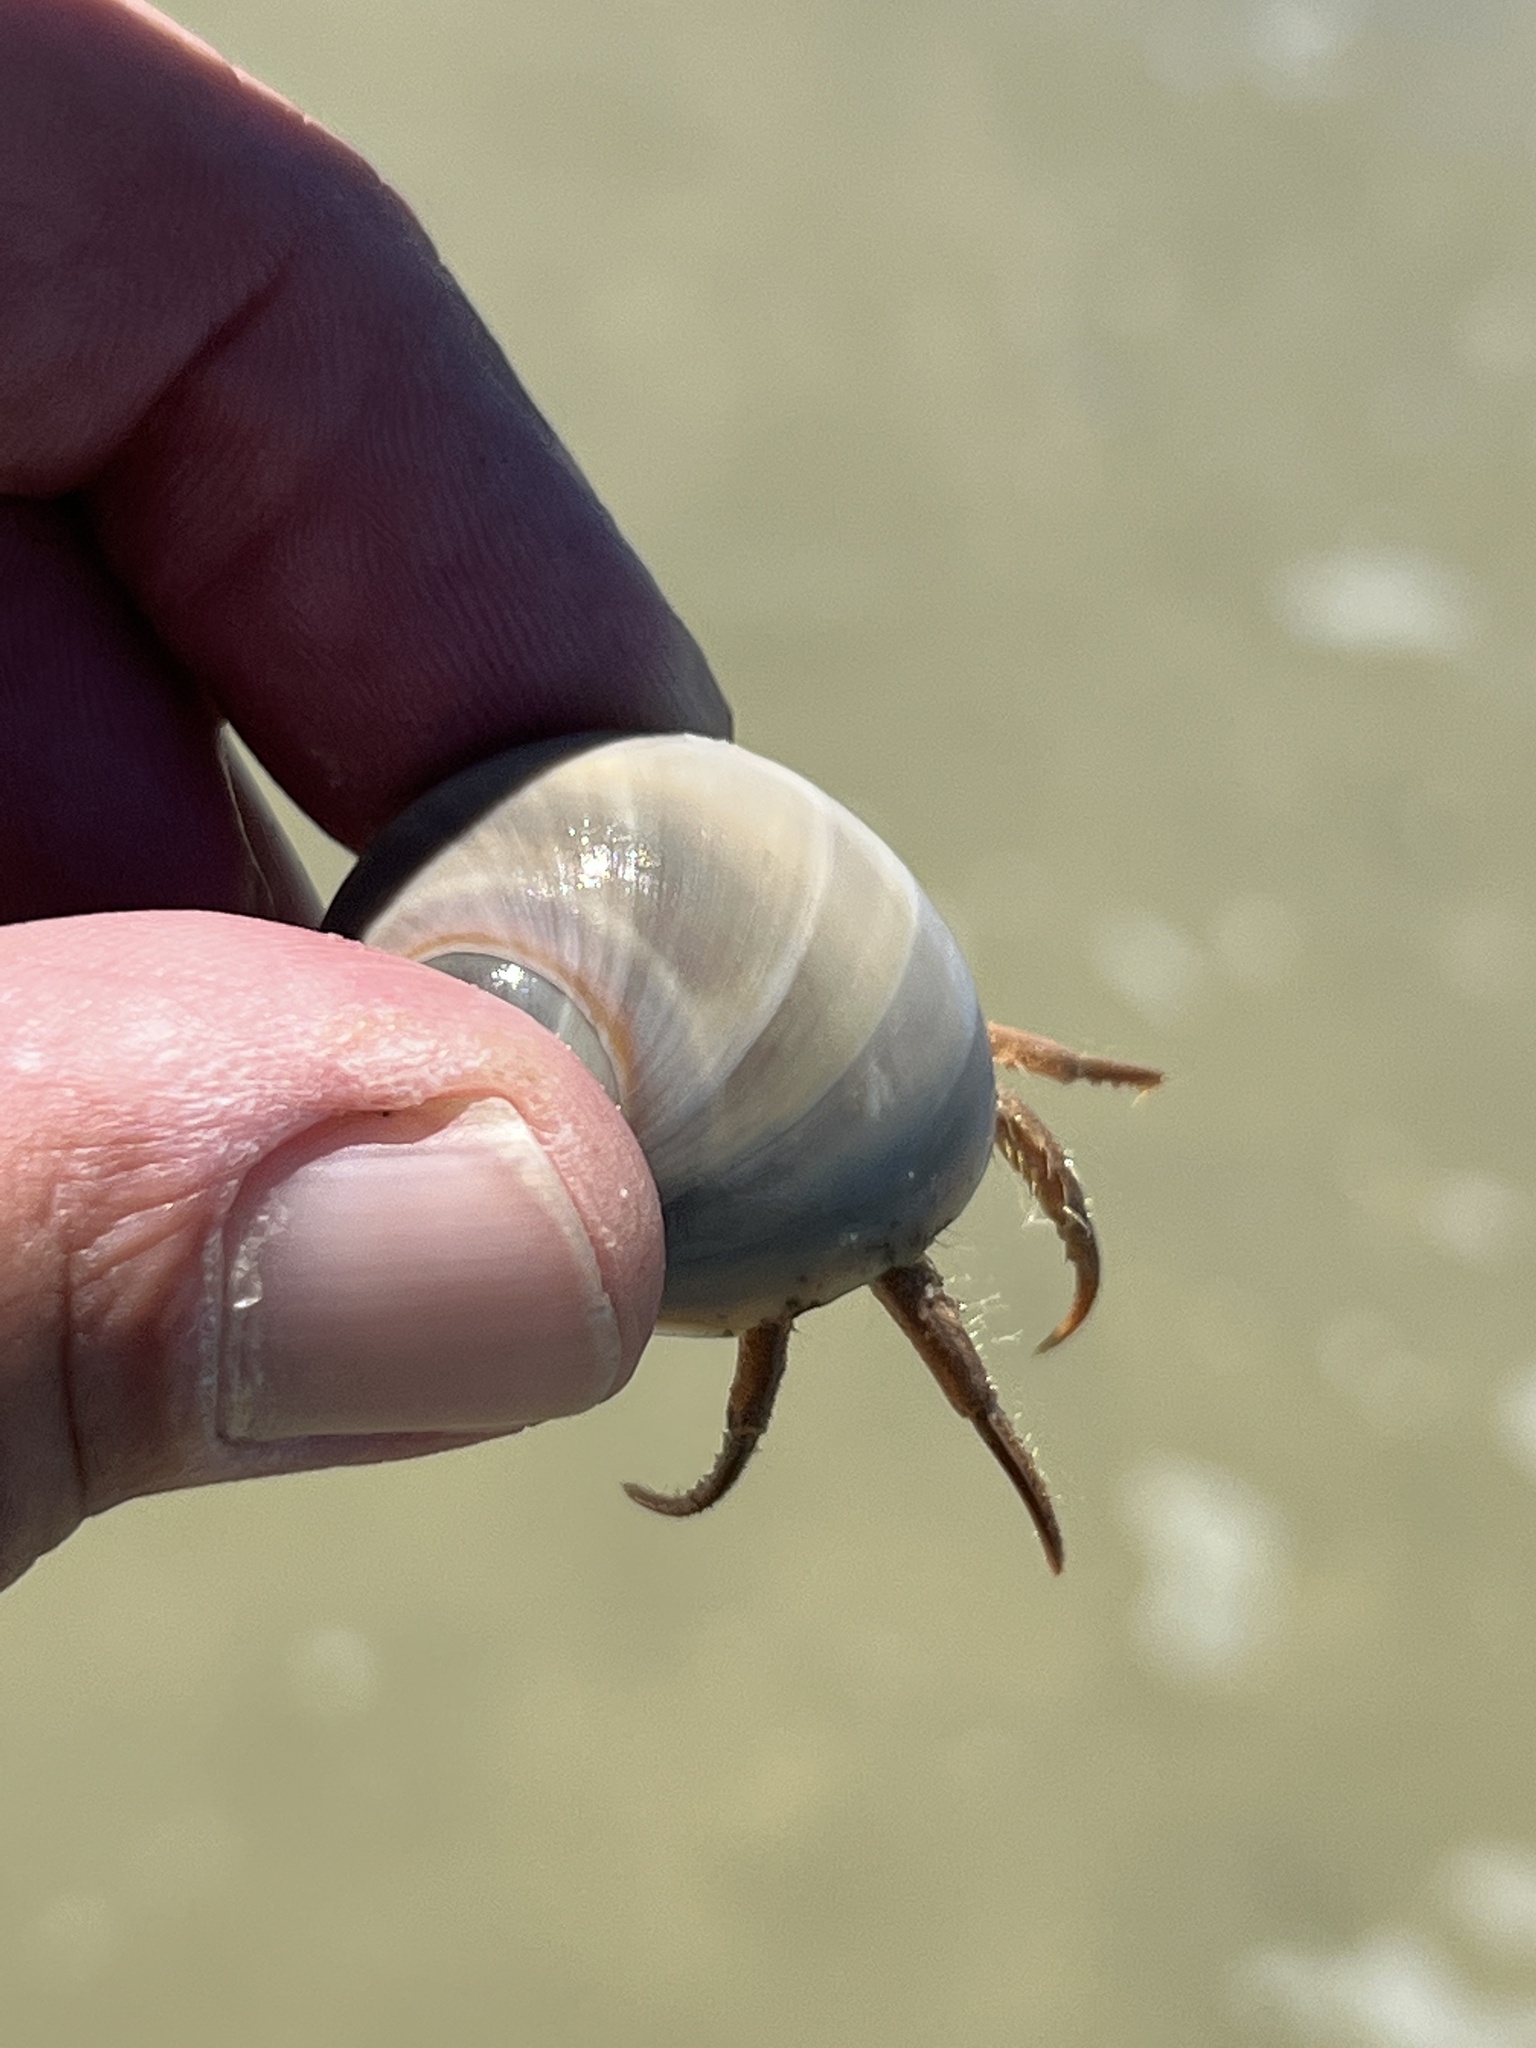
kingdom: Animalia
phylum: Arthropoda
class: Malacostraca
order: Decapoda
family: Diogenidae
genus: Isocheles
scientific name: Isocheles wurdemanni
